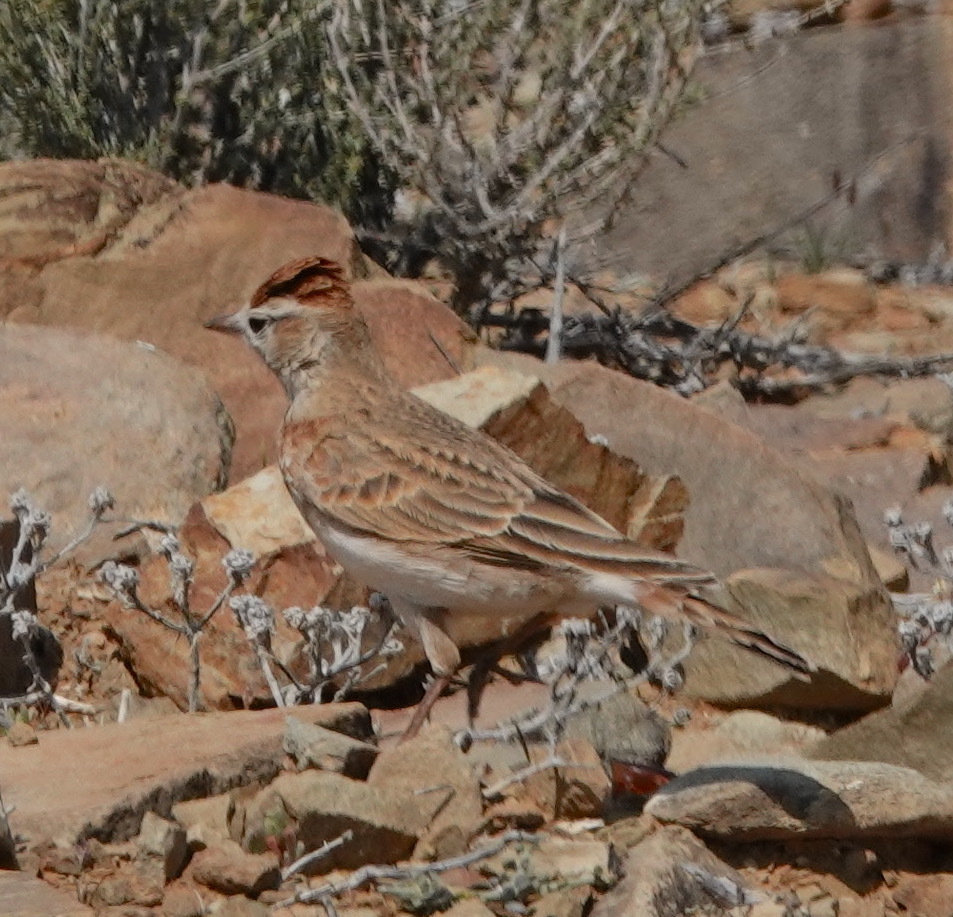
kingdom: Animalia
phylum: Chordata
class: Aves
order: Passeriformes
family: Alaudidae
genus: Calandrella
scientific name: Calandrella cinerea
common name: Red-capped lark
